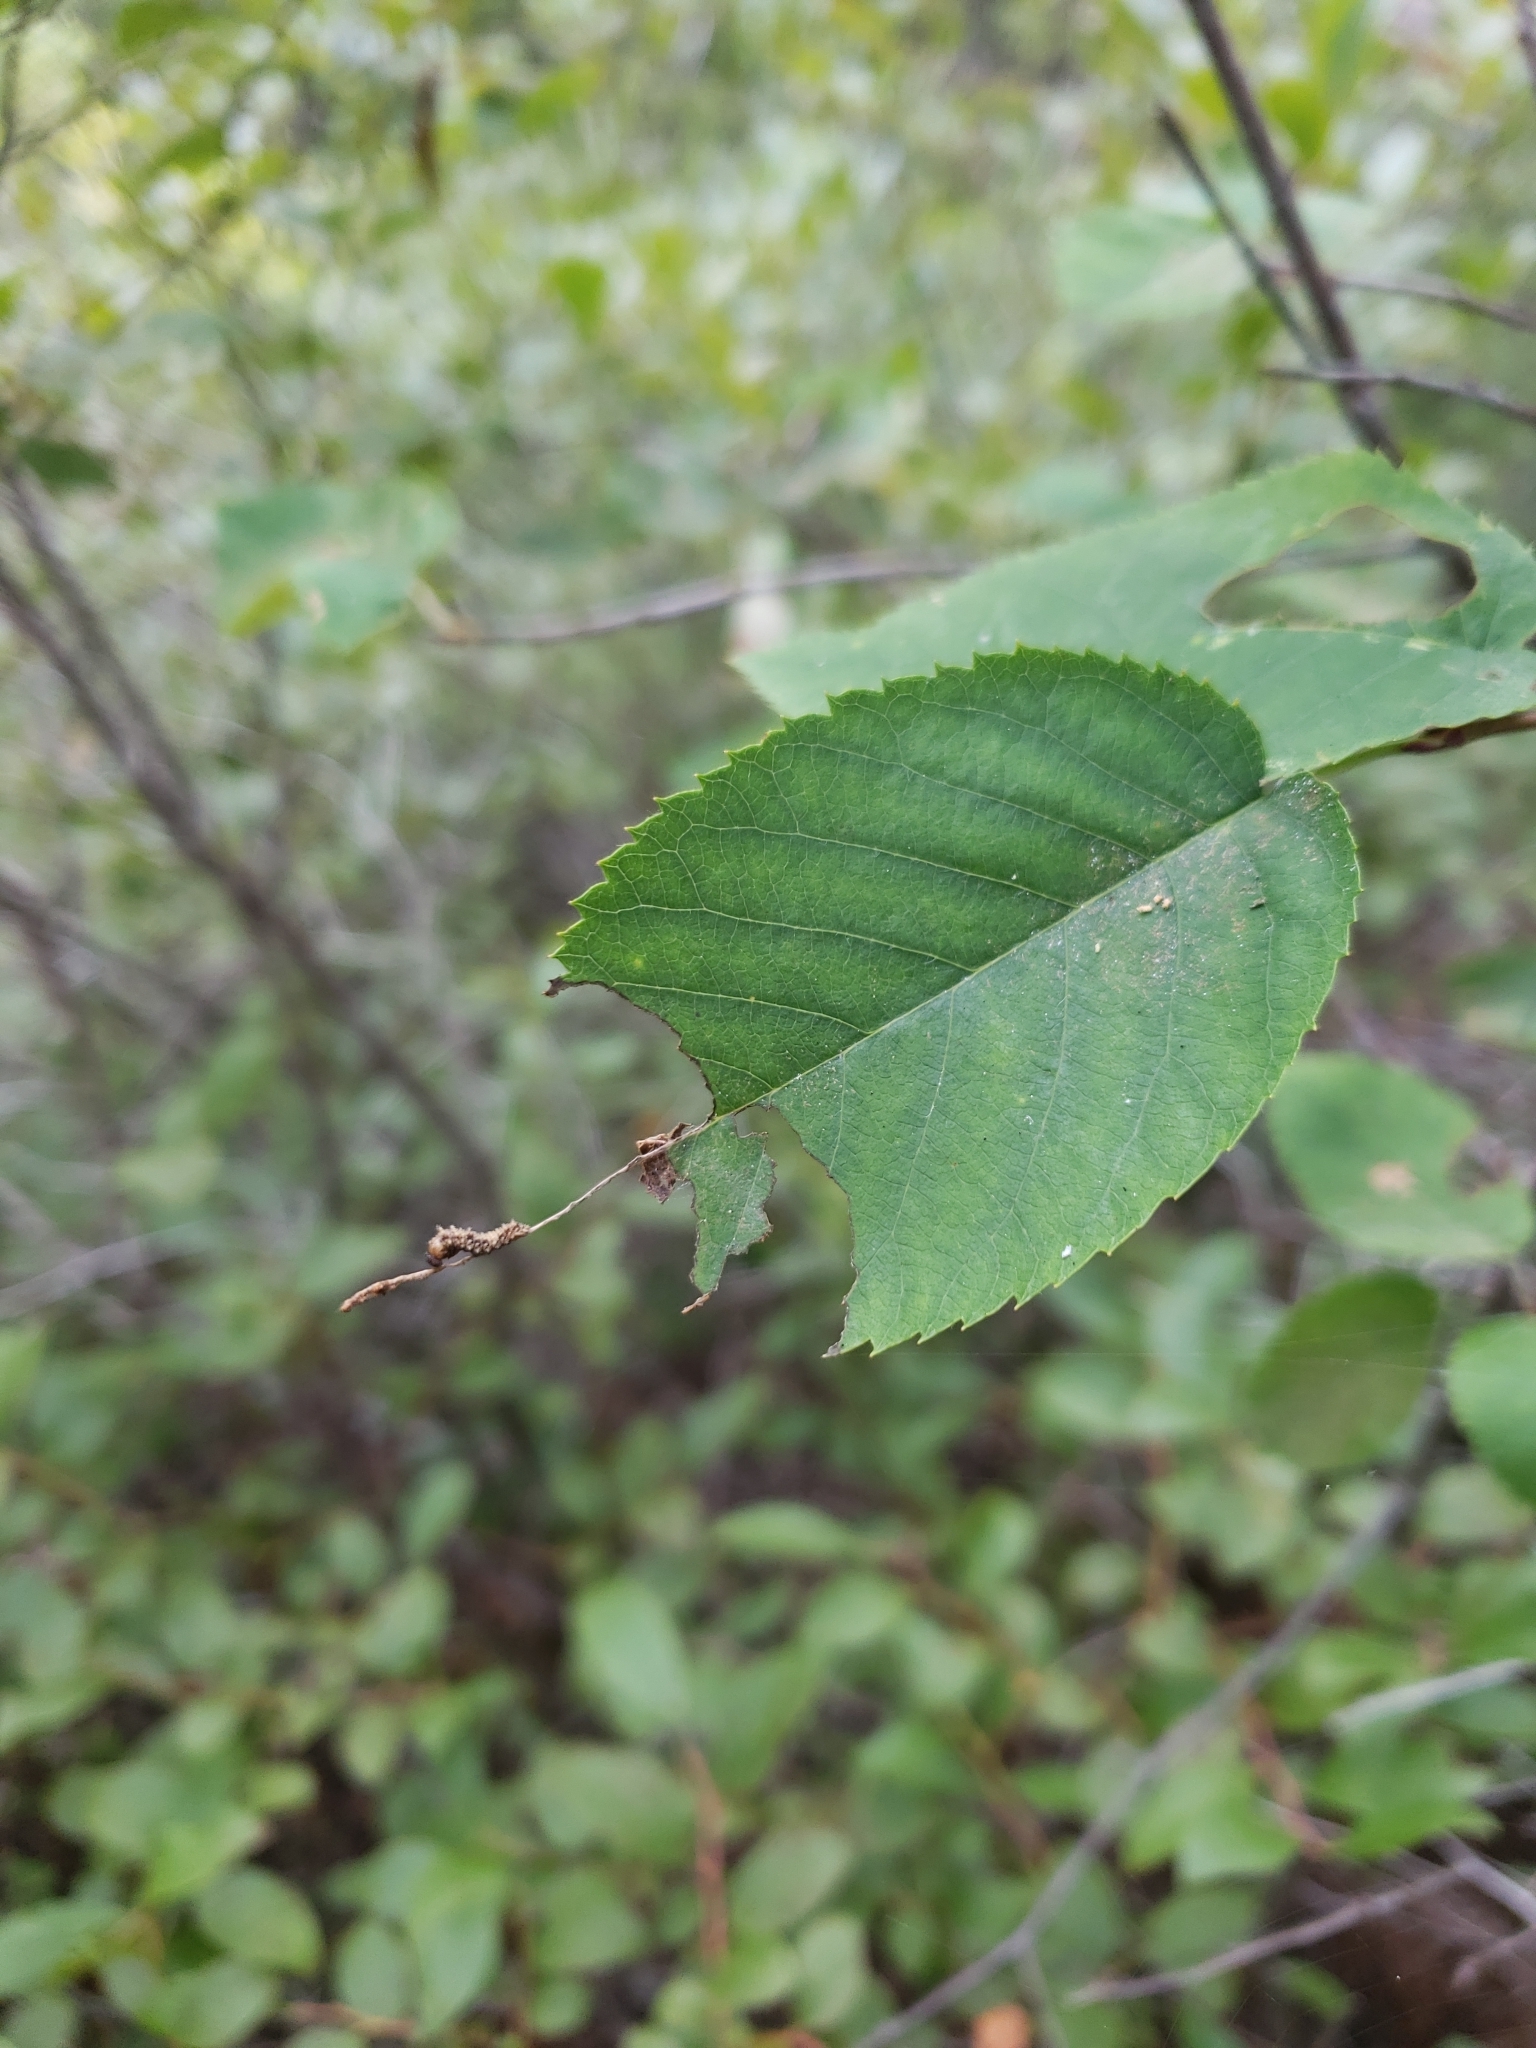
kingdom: Animalia
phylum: Arthropoda
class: Insecta
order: Lepidoptera
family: Nymphalidae
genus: Limenitis
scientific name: Limenitis arthemis
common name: Red-spotted admiral
